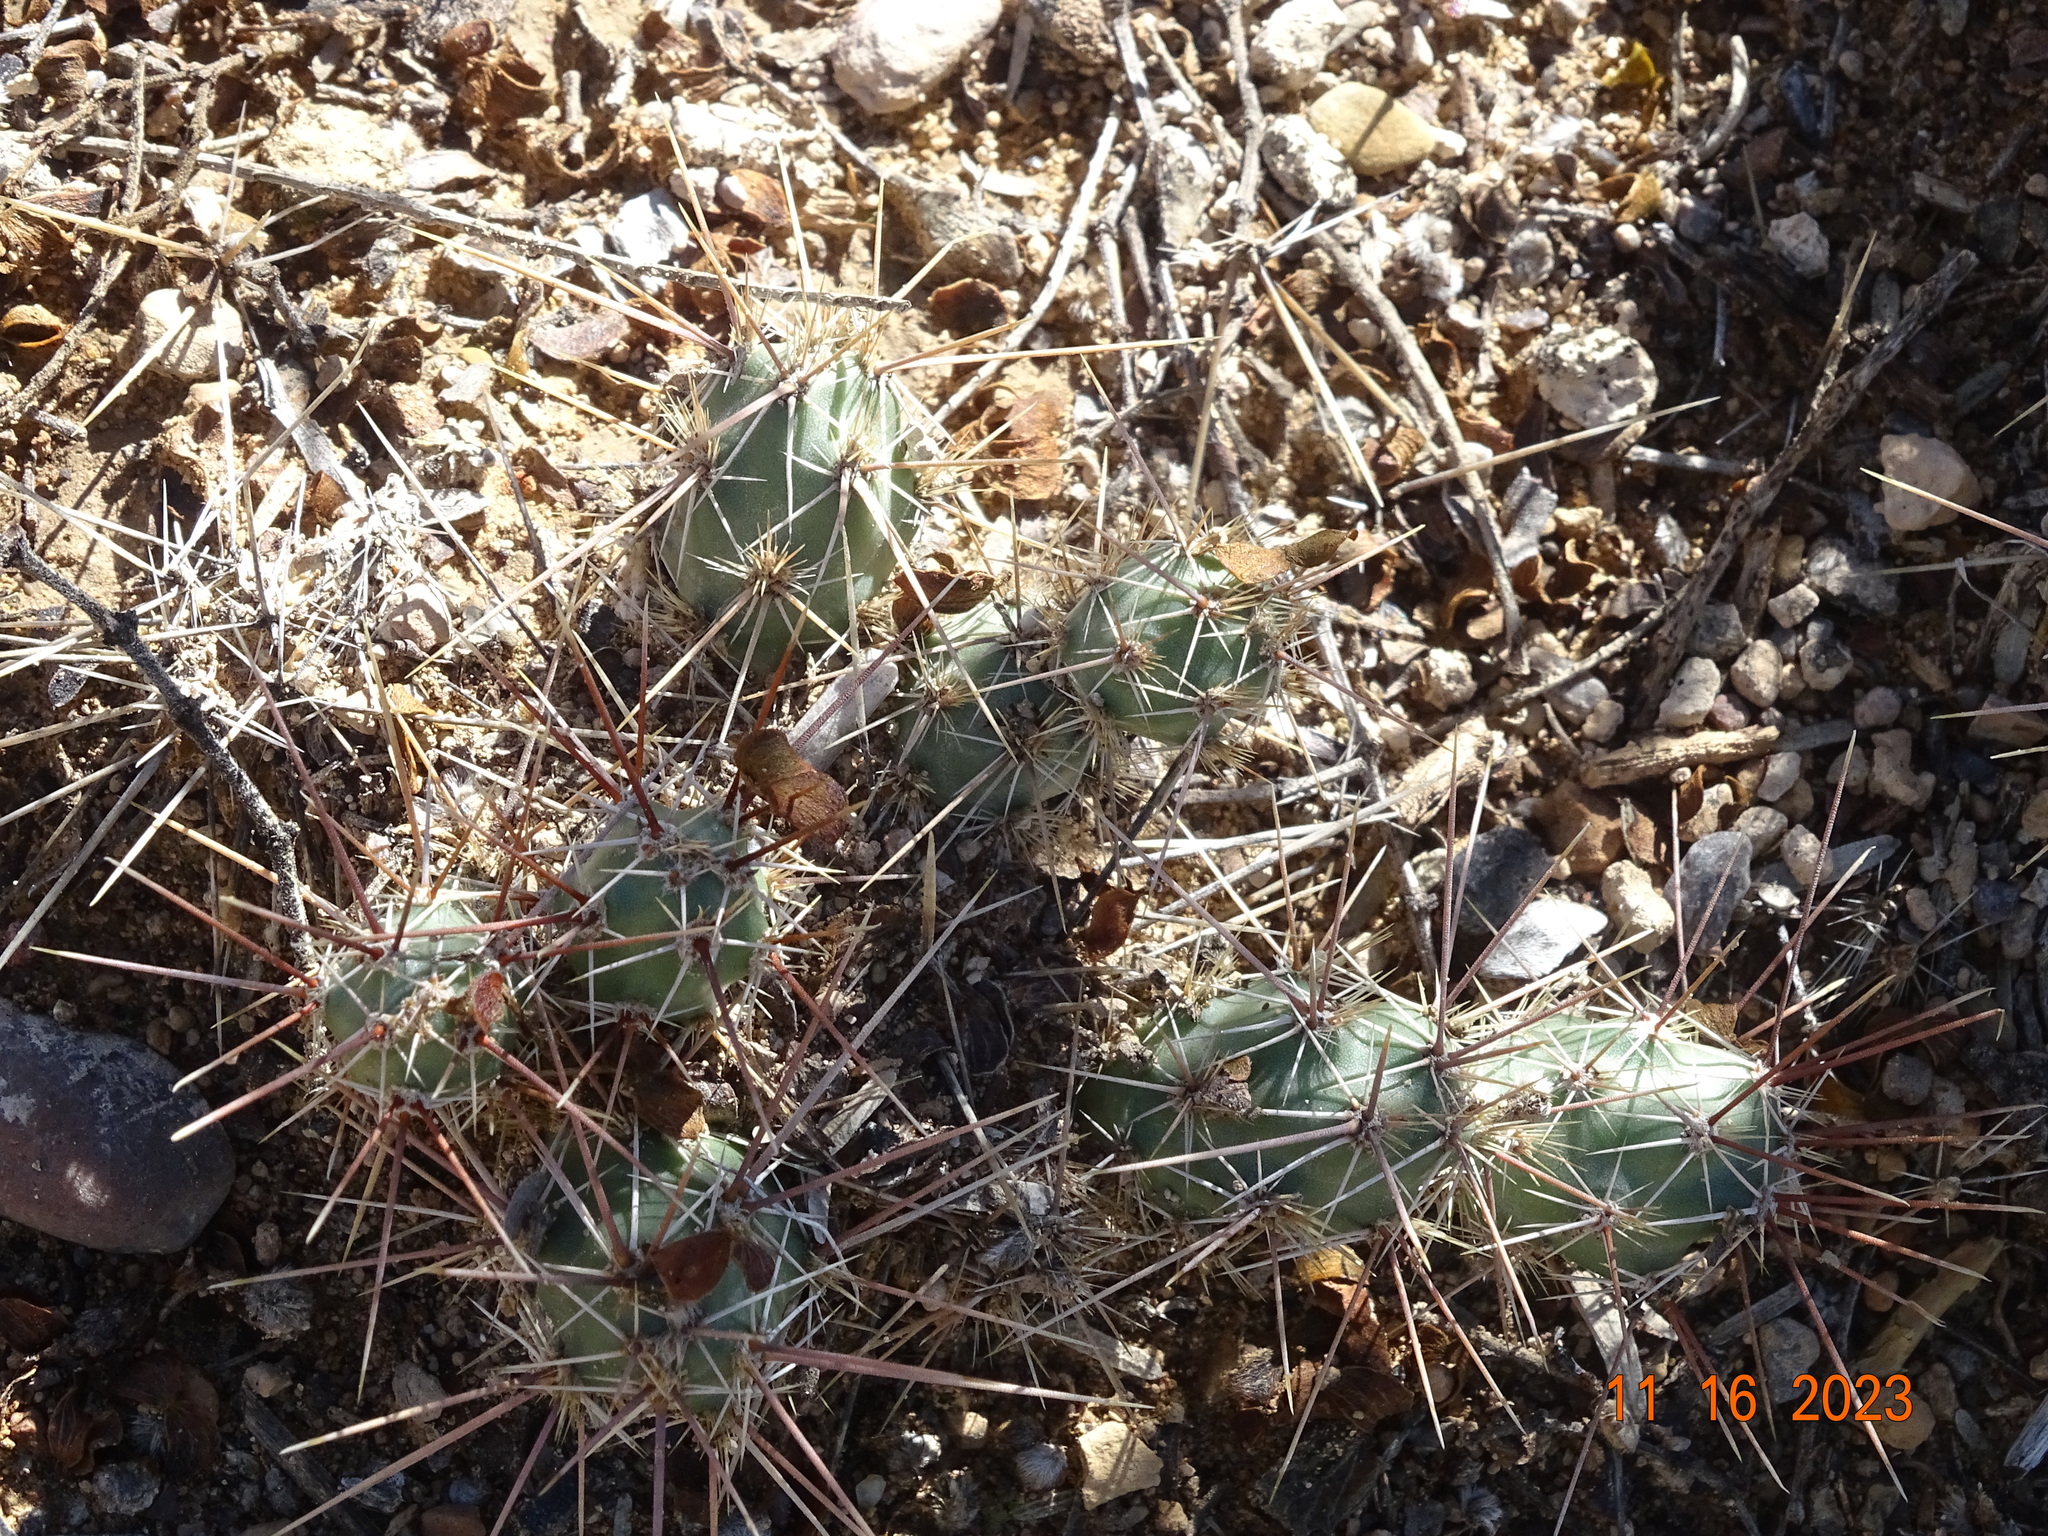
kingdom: Plantae
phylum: Tracheophyta
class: Magnoliopsida
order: Caryophyllales
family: Cactaceae
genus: Grusonia
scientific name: Grusonia schottii
